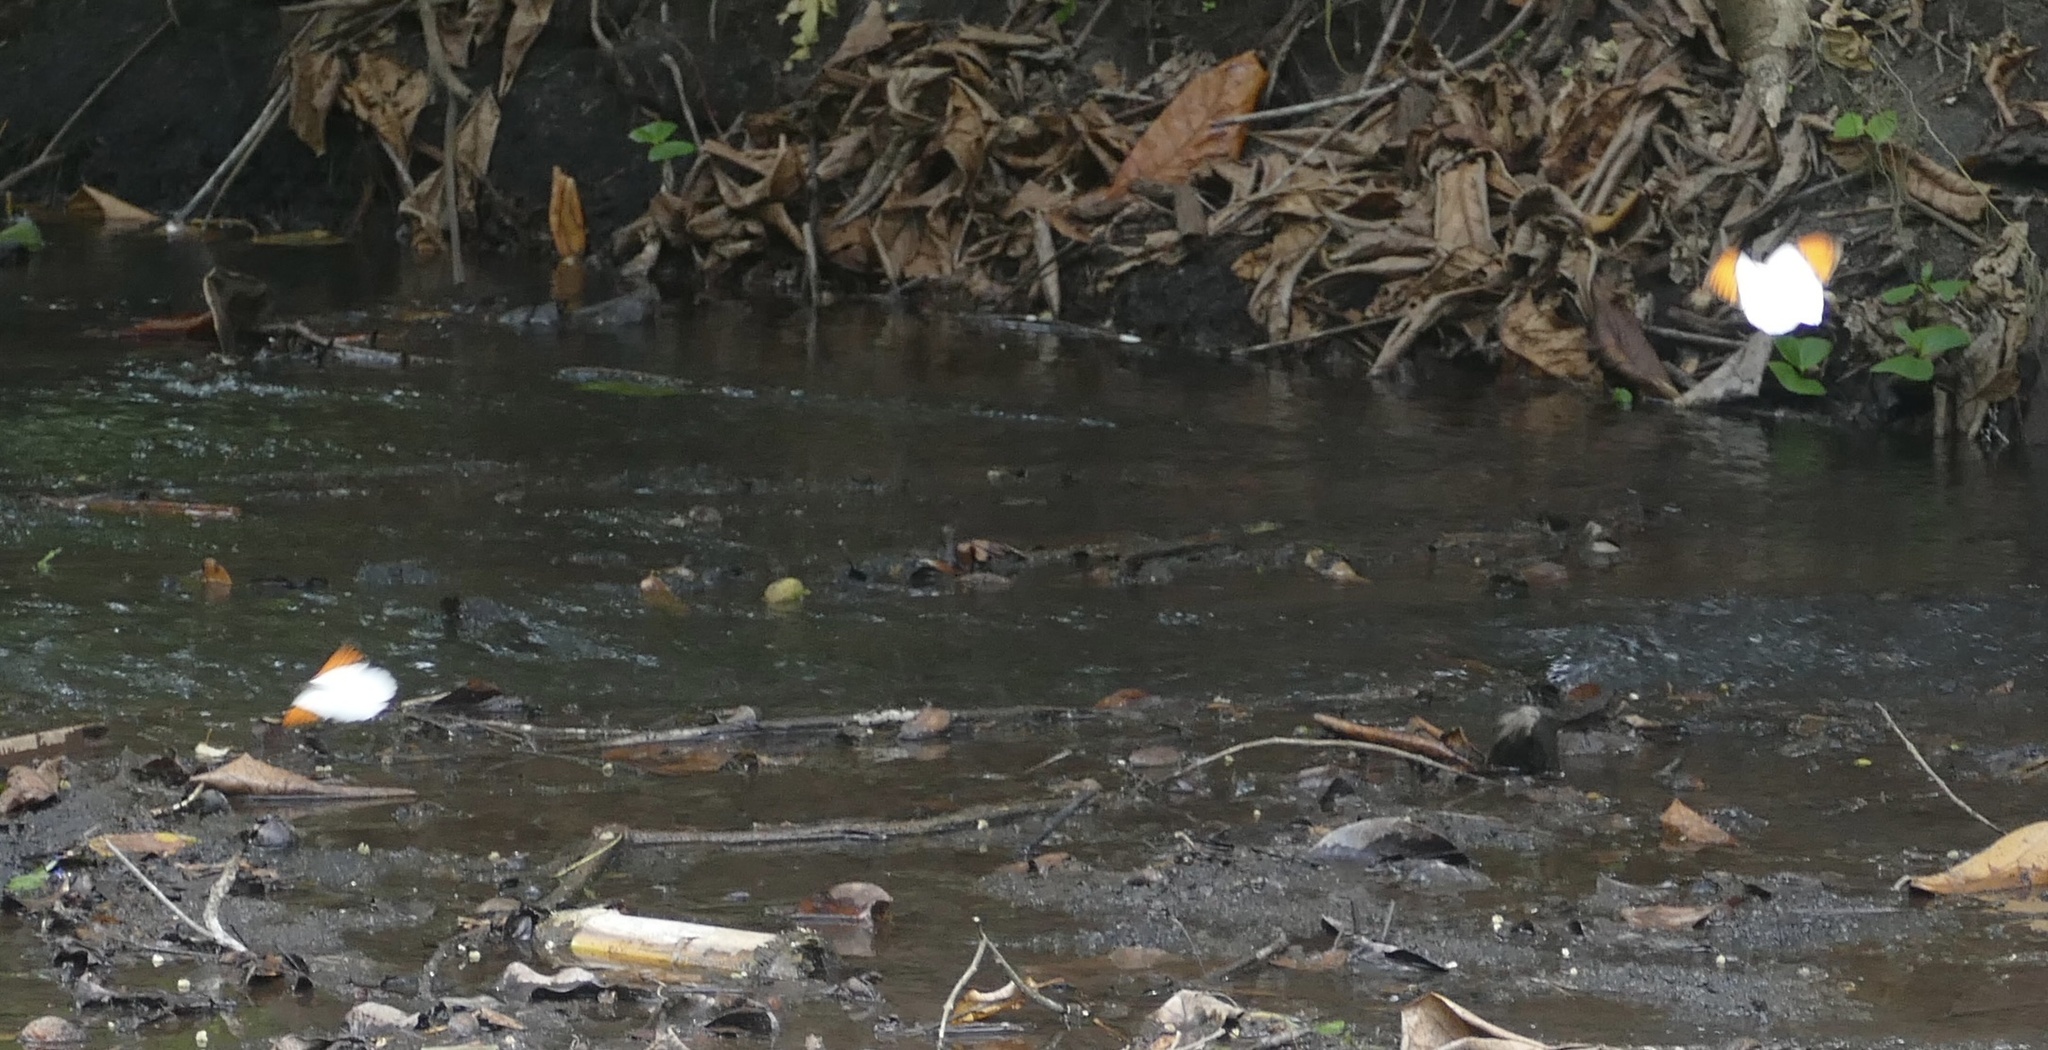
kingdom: Animalia
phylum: Arthropoda
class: Insecta
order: Lepidoptera
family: Pieridae
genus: Hebomoia
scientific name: Hebomoia glaucippe
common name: Great orange tip
